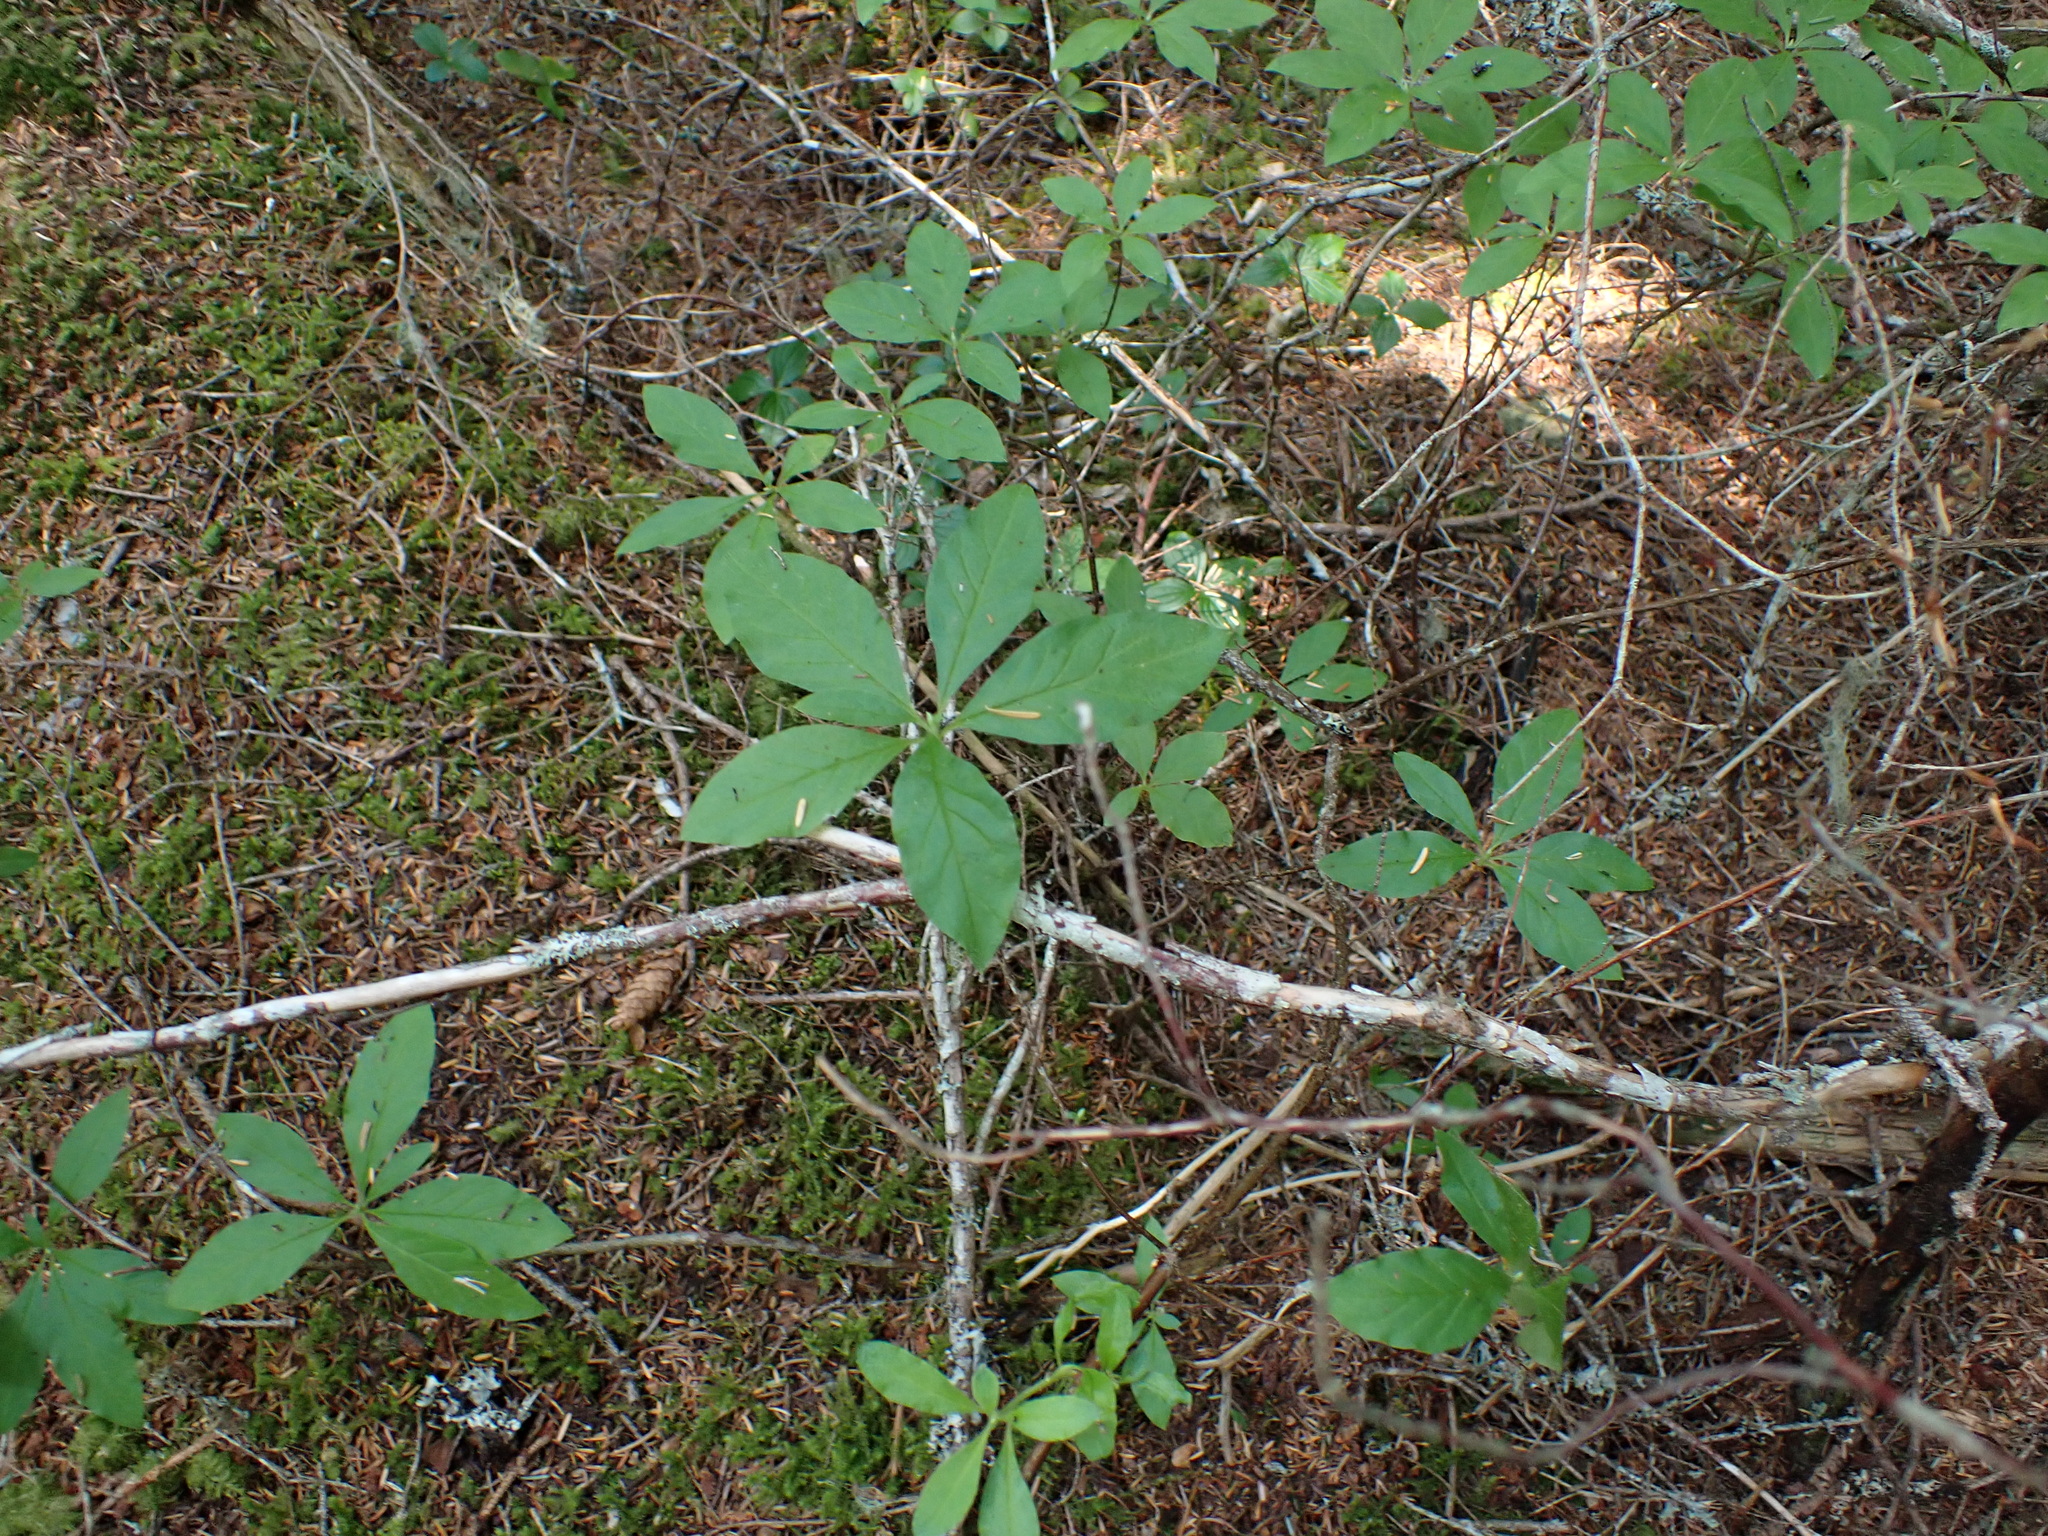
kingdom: Plantae
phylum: Tracheophyta
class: Magnoliopsida
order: Ericales
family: Ericaceae
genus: Rhododendron
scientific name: Rhododendron menziesii
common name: Pacific menziesia
